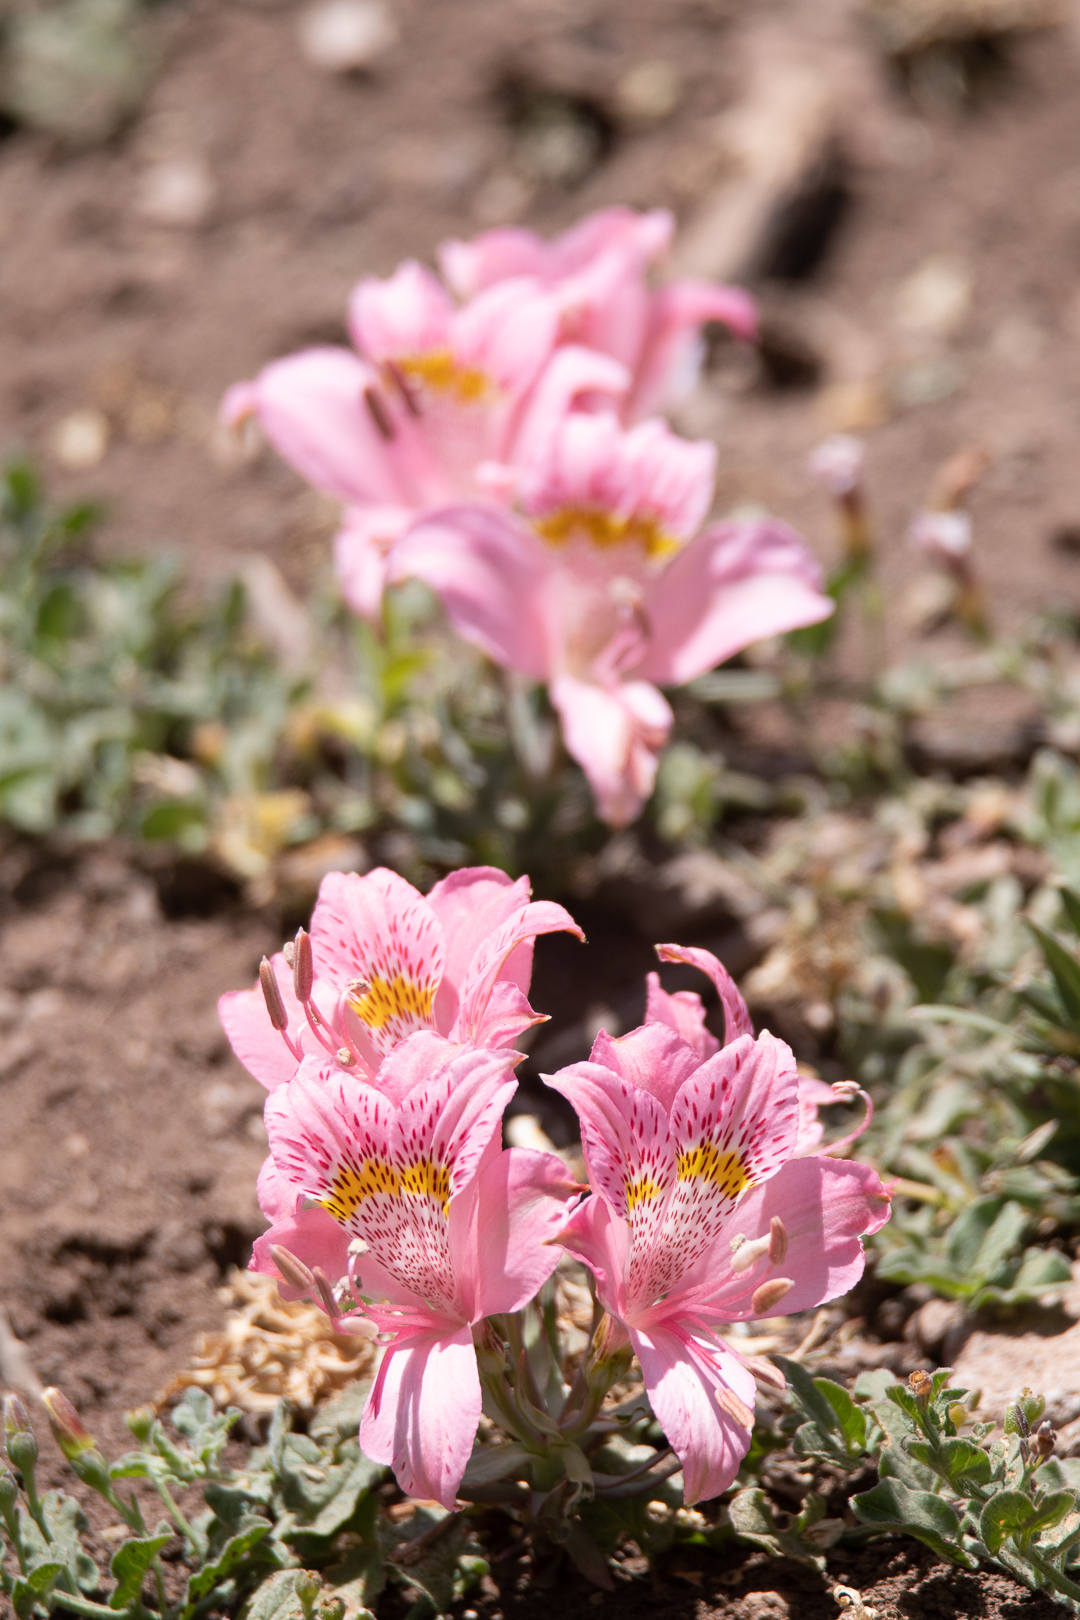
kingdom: Plantae
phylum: Tracheophyta
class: Liliopsida
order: Liliales
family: Alstroemeriaceae
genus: Alstroemeria
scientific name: Alstroemeria pallida
